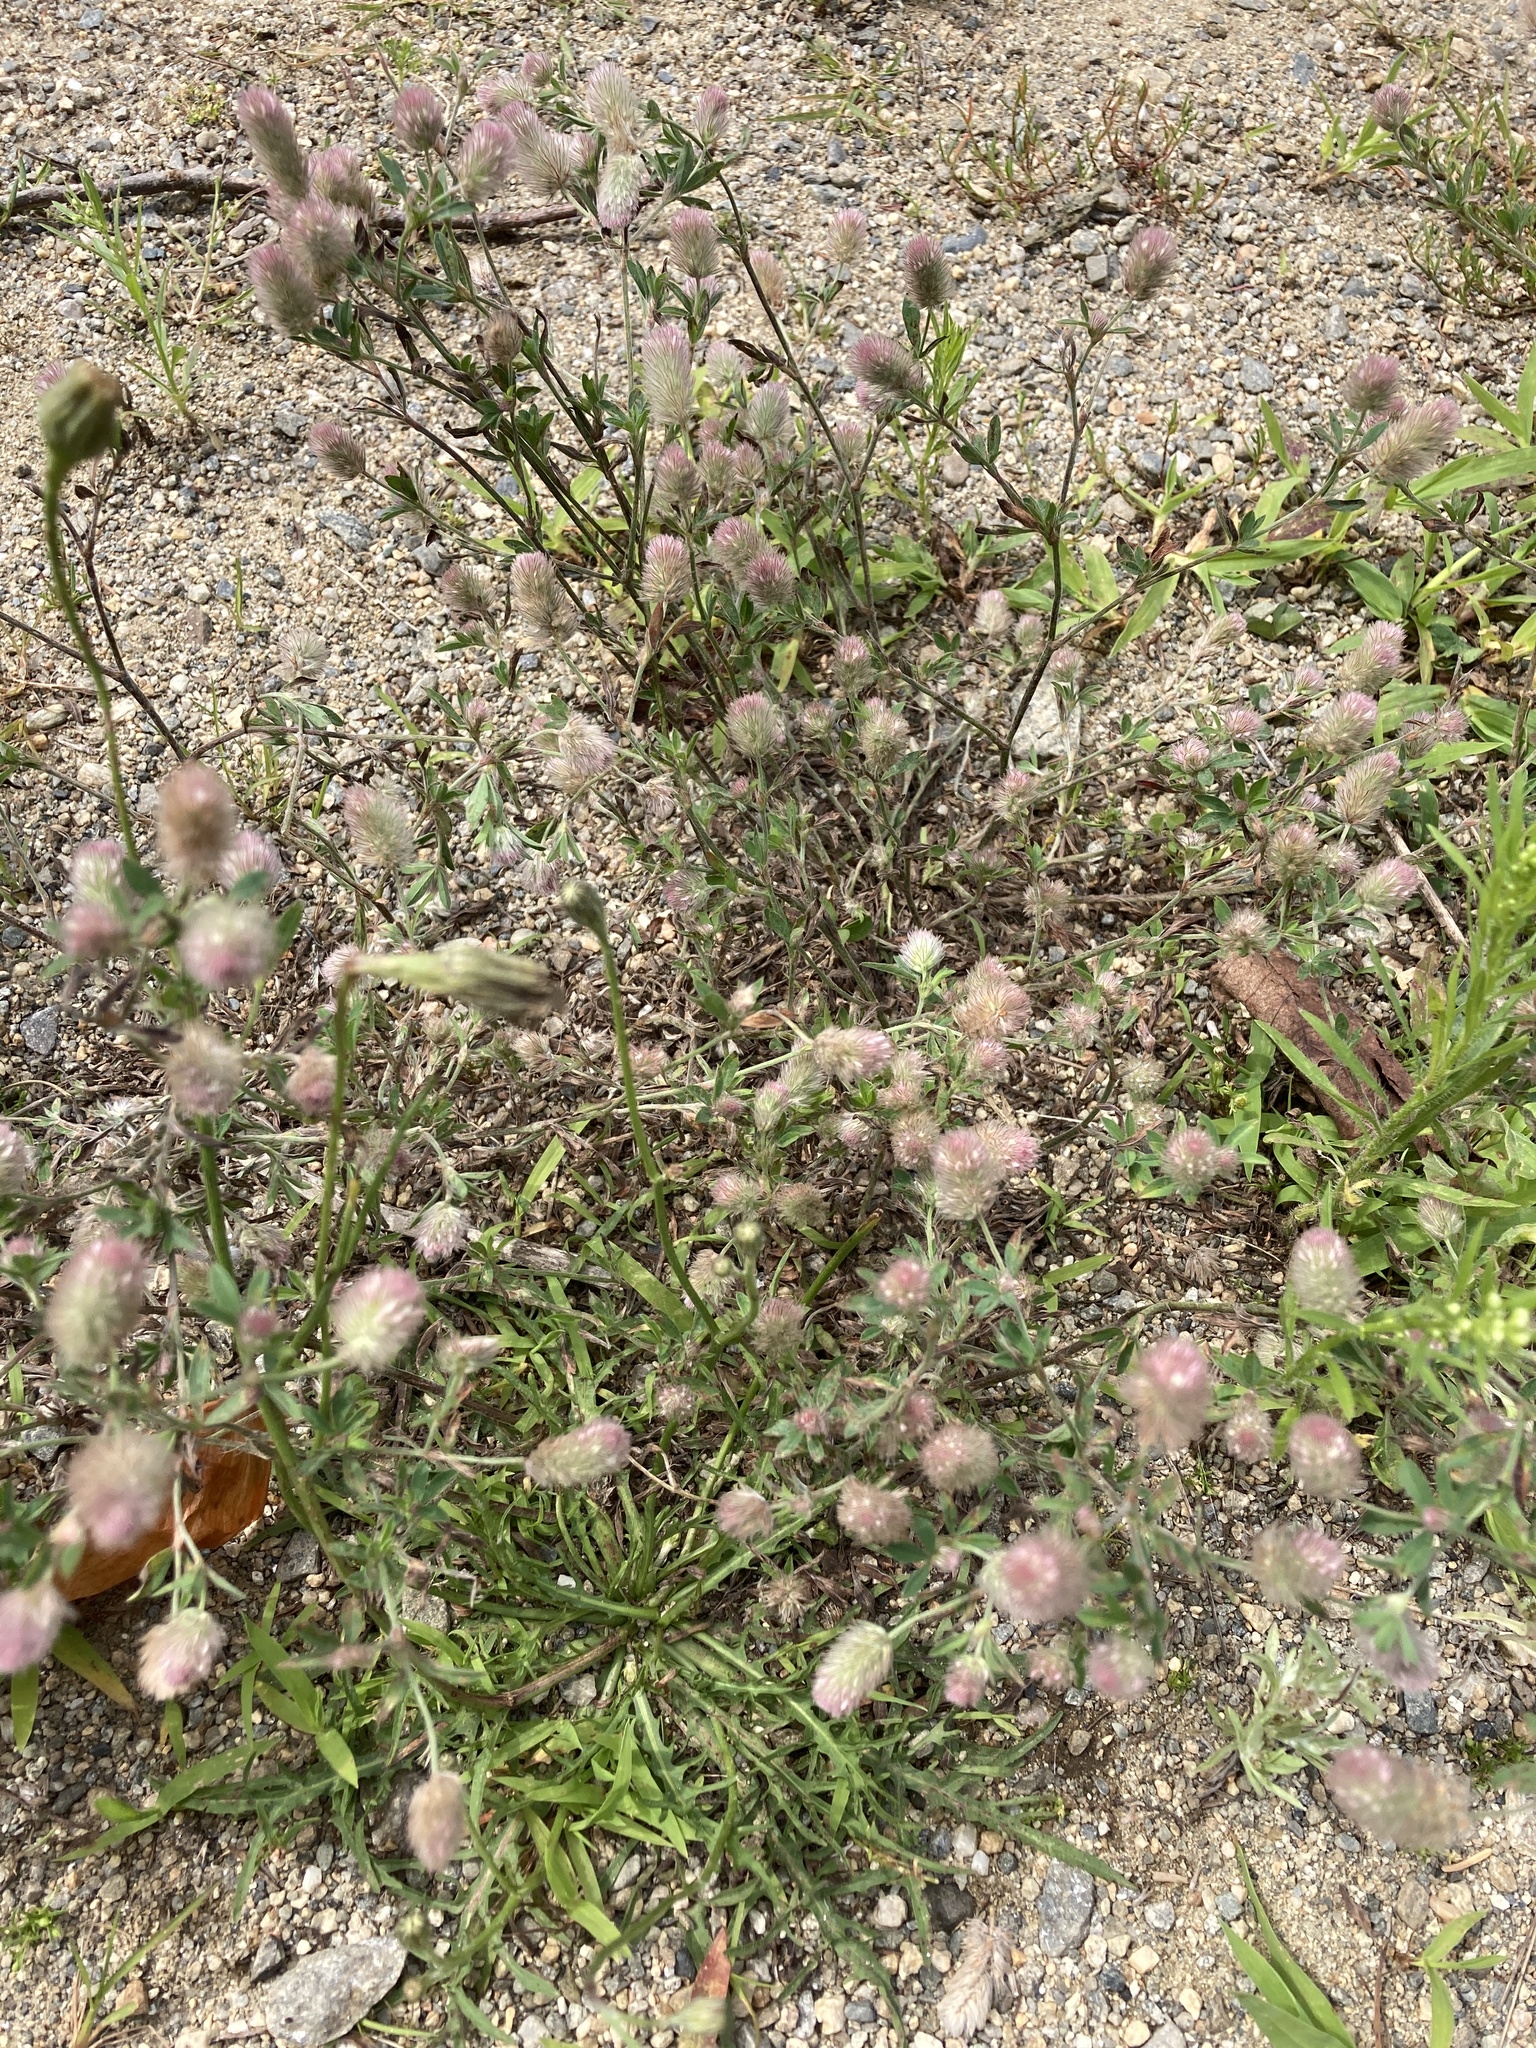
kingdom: Plantae
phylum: Tracheophyta
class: Magnoliopsida
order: Fabales
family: Fabaceae
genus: Trifolium
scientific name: Trifolium arvense
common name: Hare's-foot clover
